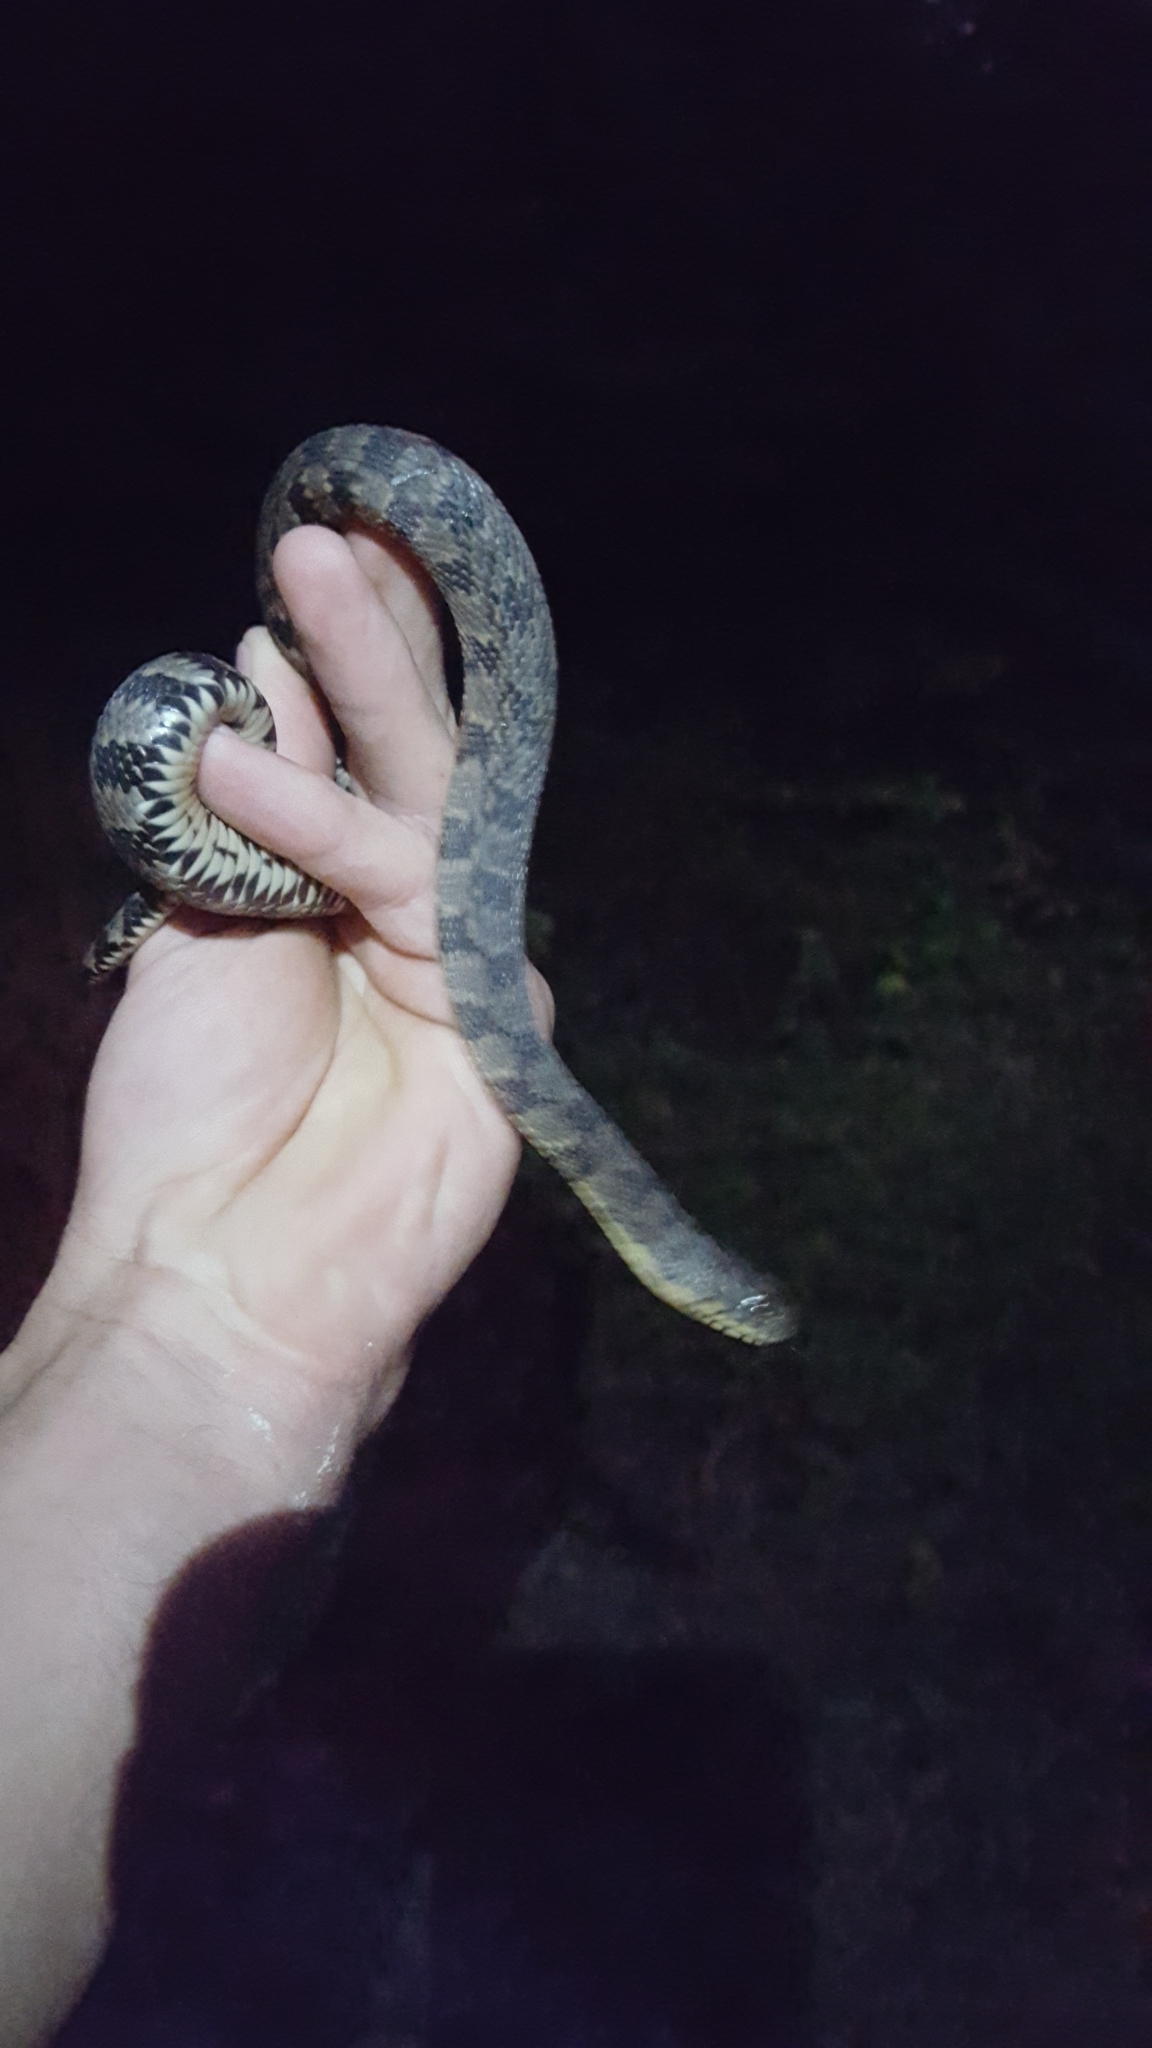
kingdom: Animalia
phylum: Chordata
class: Squamata
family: Colubridae
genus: Nerodia
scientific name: Nerodia rhombifer
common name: Diamondback water snake
